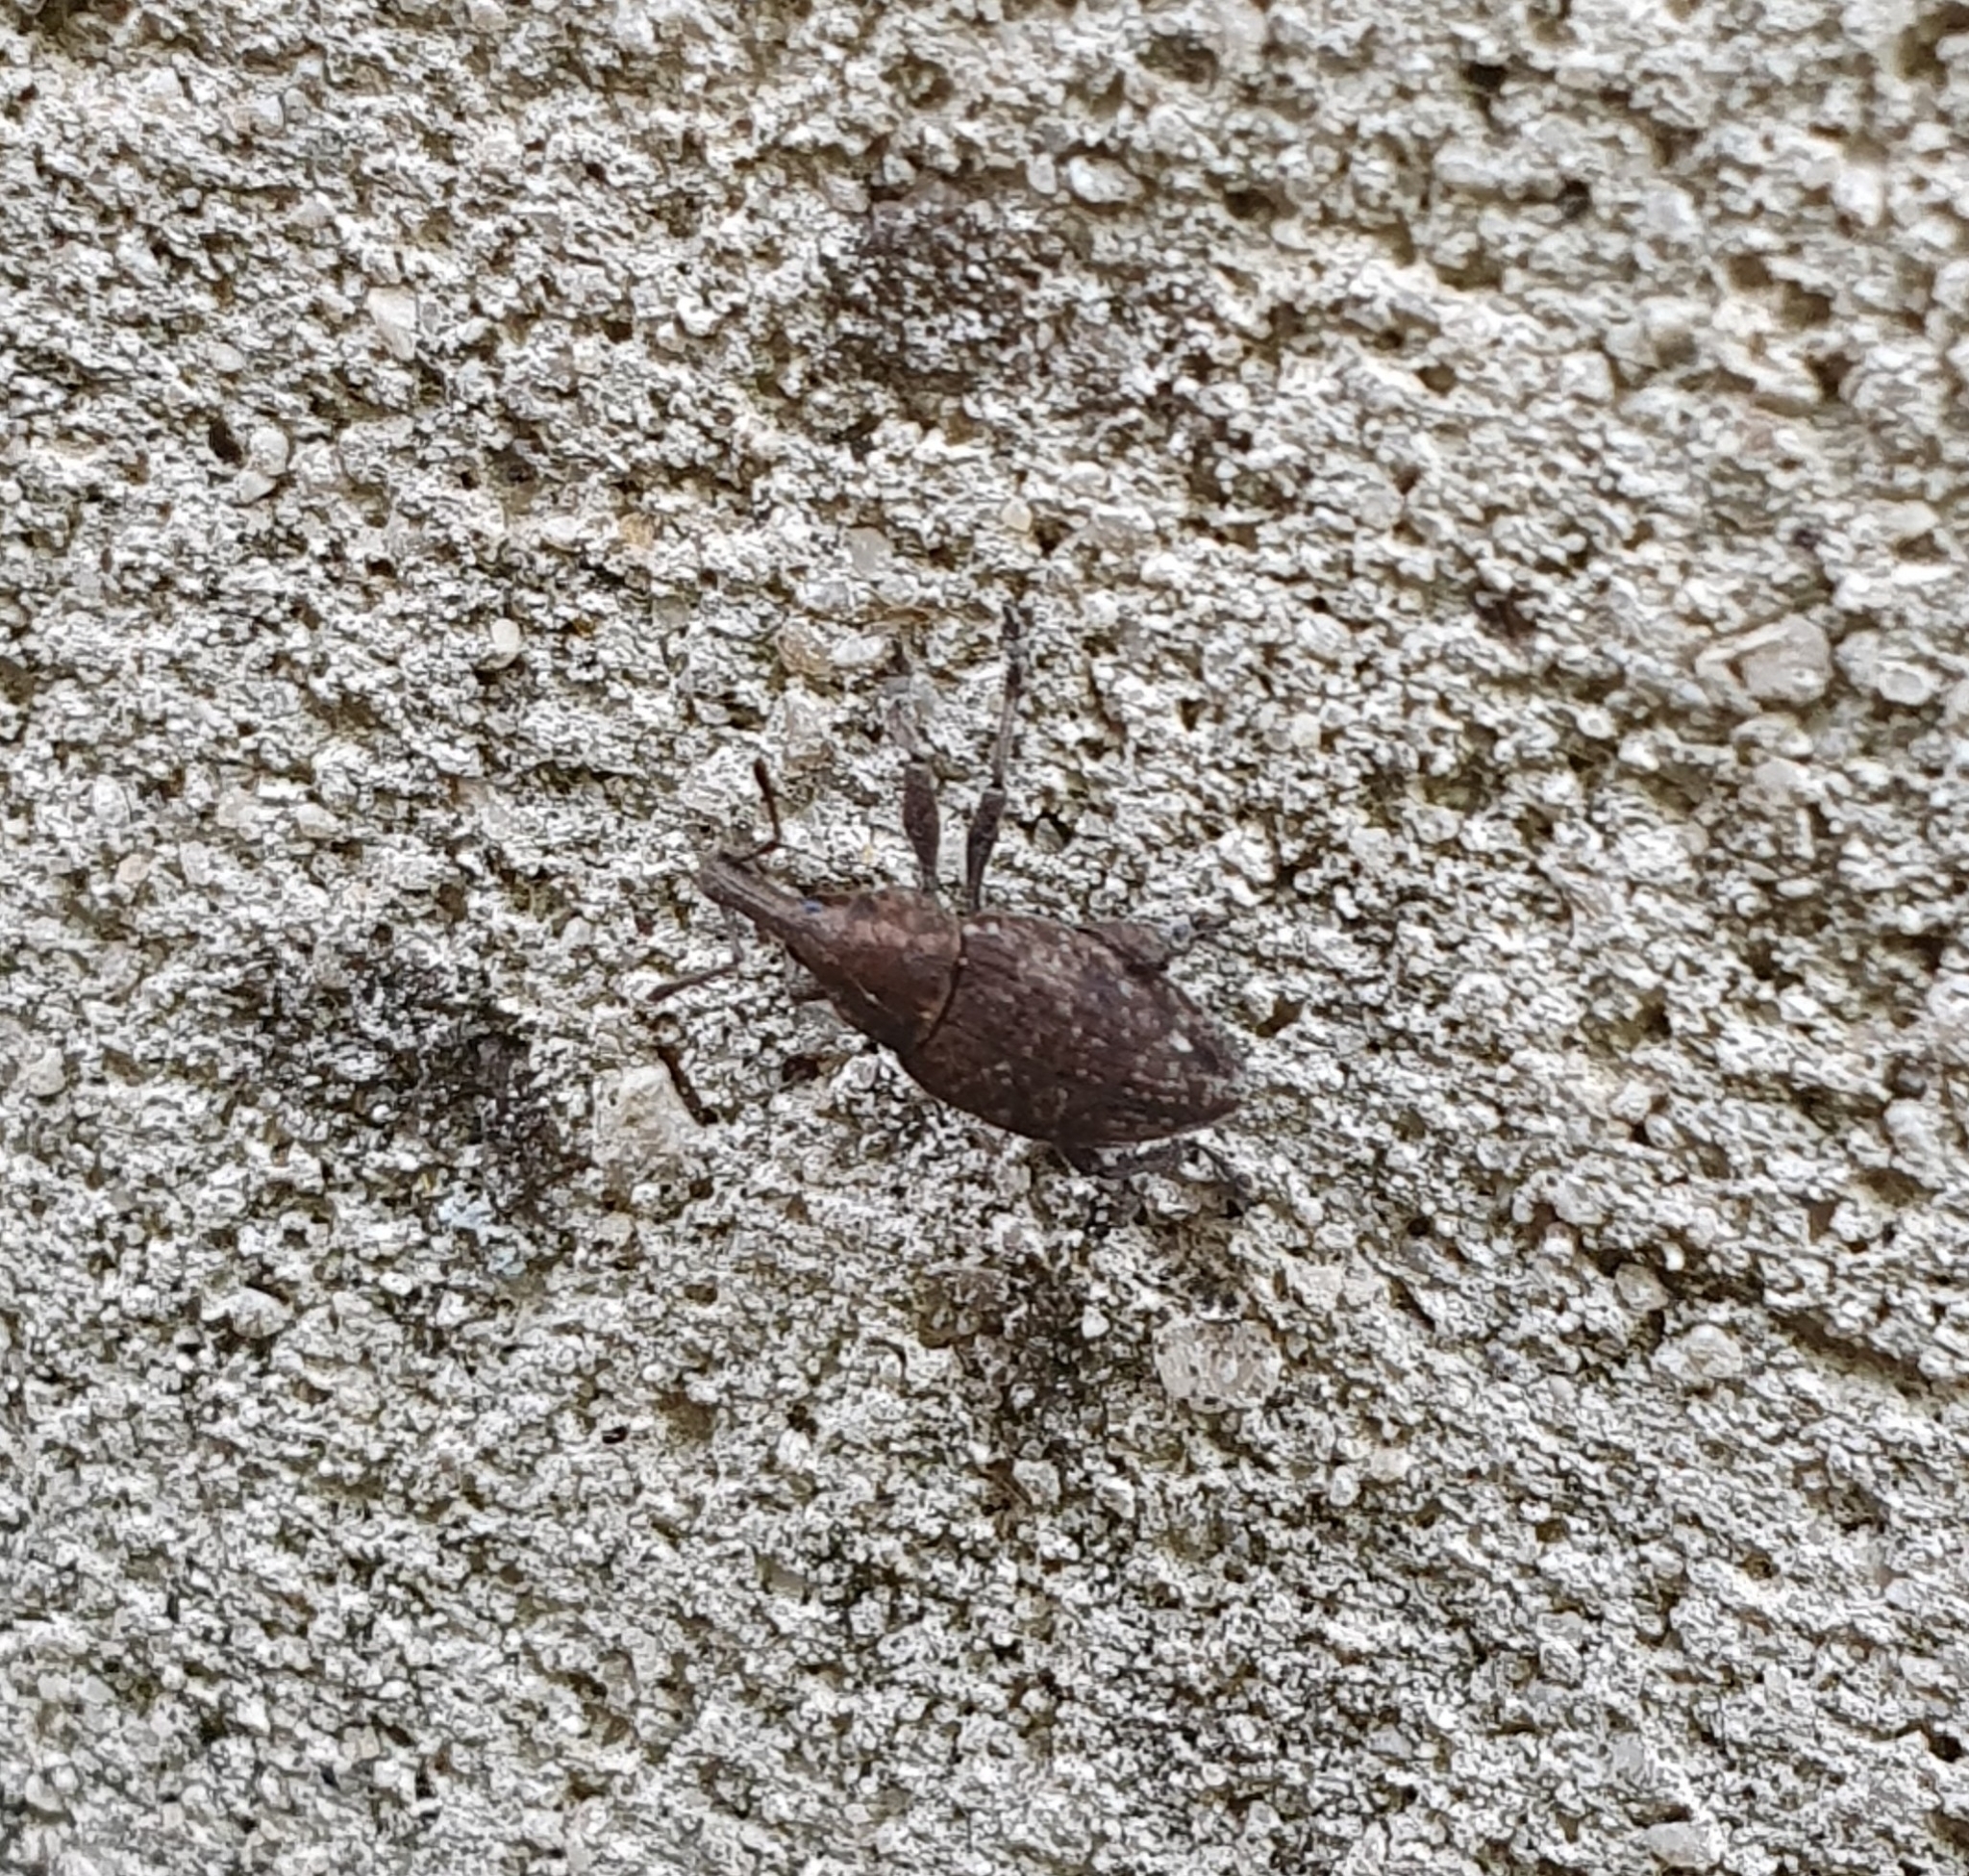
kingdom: Animalia
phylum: Arthropoda
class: Insecta
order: Coleoptera
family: Curculionidae
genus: Lepyrus
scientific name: Lepyrus capucinus
